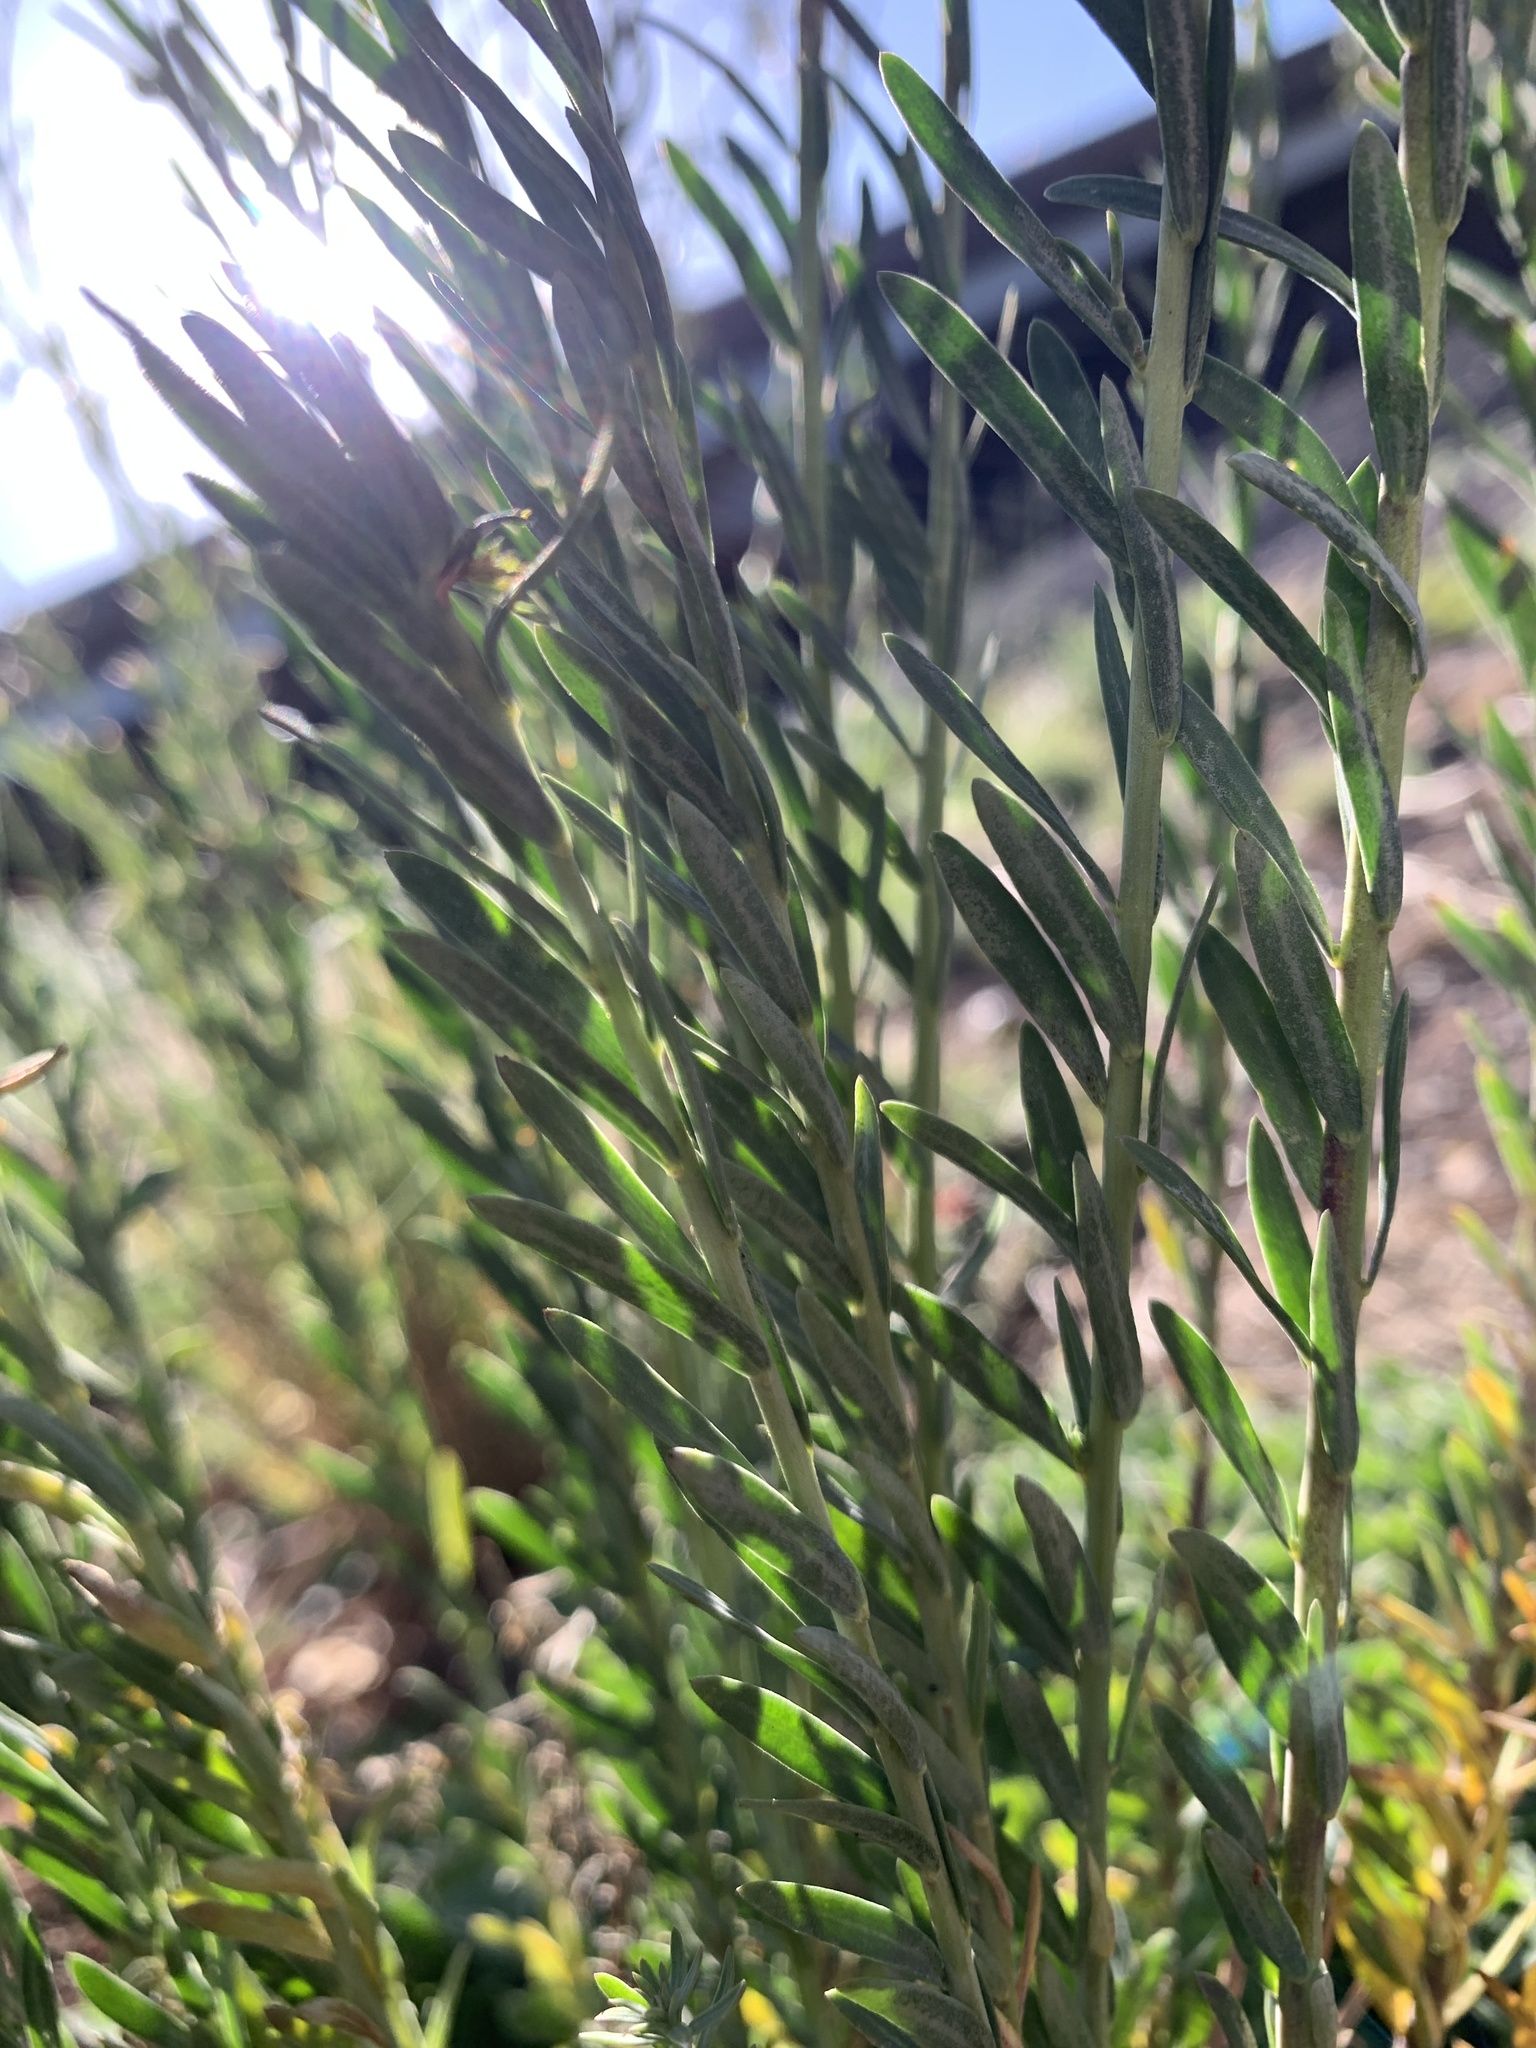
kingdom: Plantae
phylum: Tracheophyta
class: Magnoliopsida
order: Malpighiales
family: Linaceae
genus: Linum
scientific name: Linum lewisii
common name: Prairie flax
